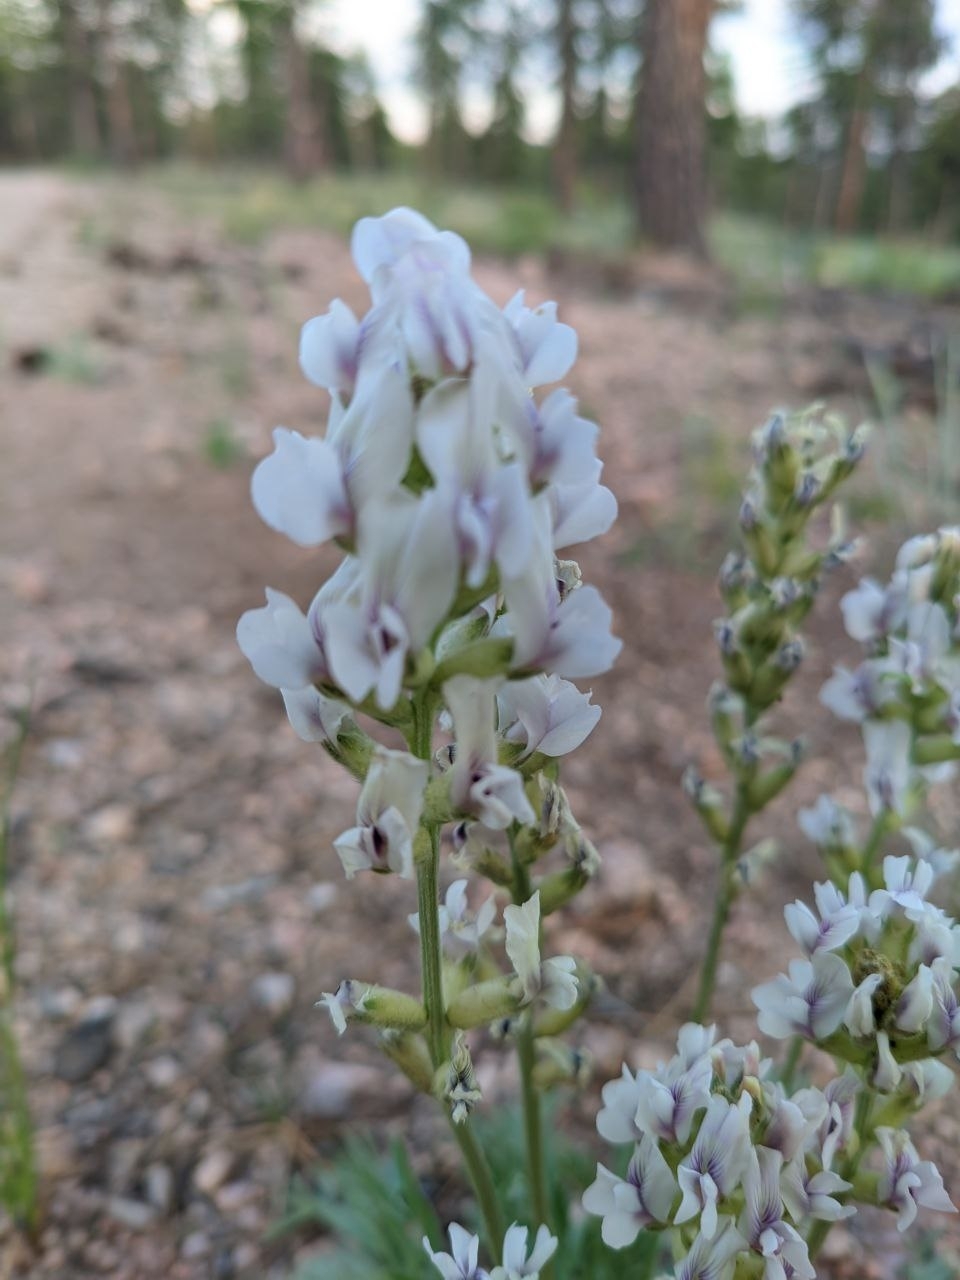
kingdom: Plantae
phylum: Tracheophyta
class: Magnoliopsida
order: Fabales
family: Fabaceae
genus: Oxytropis
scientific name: Oxytropis sericea
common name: Silky locoweed
